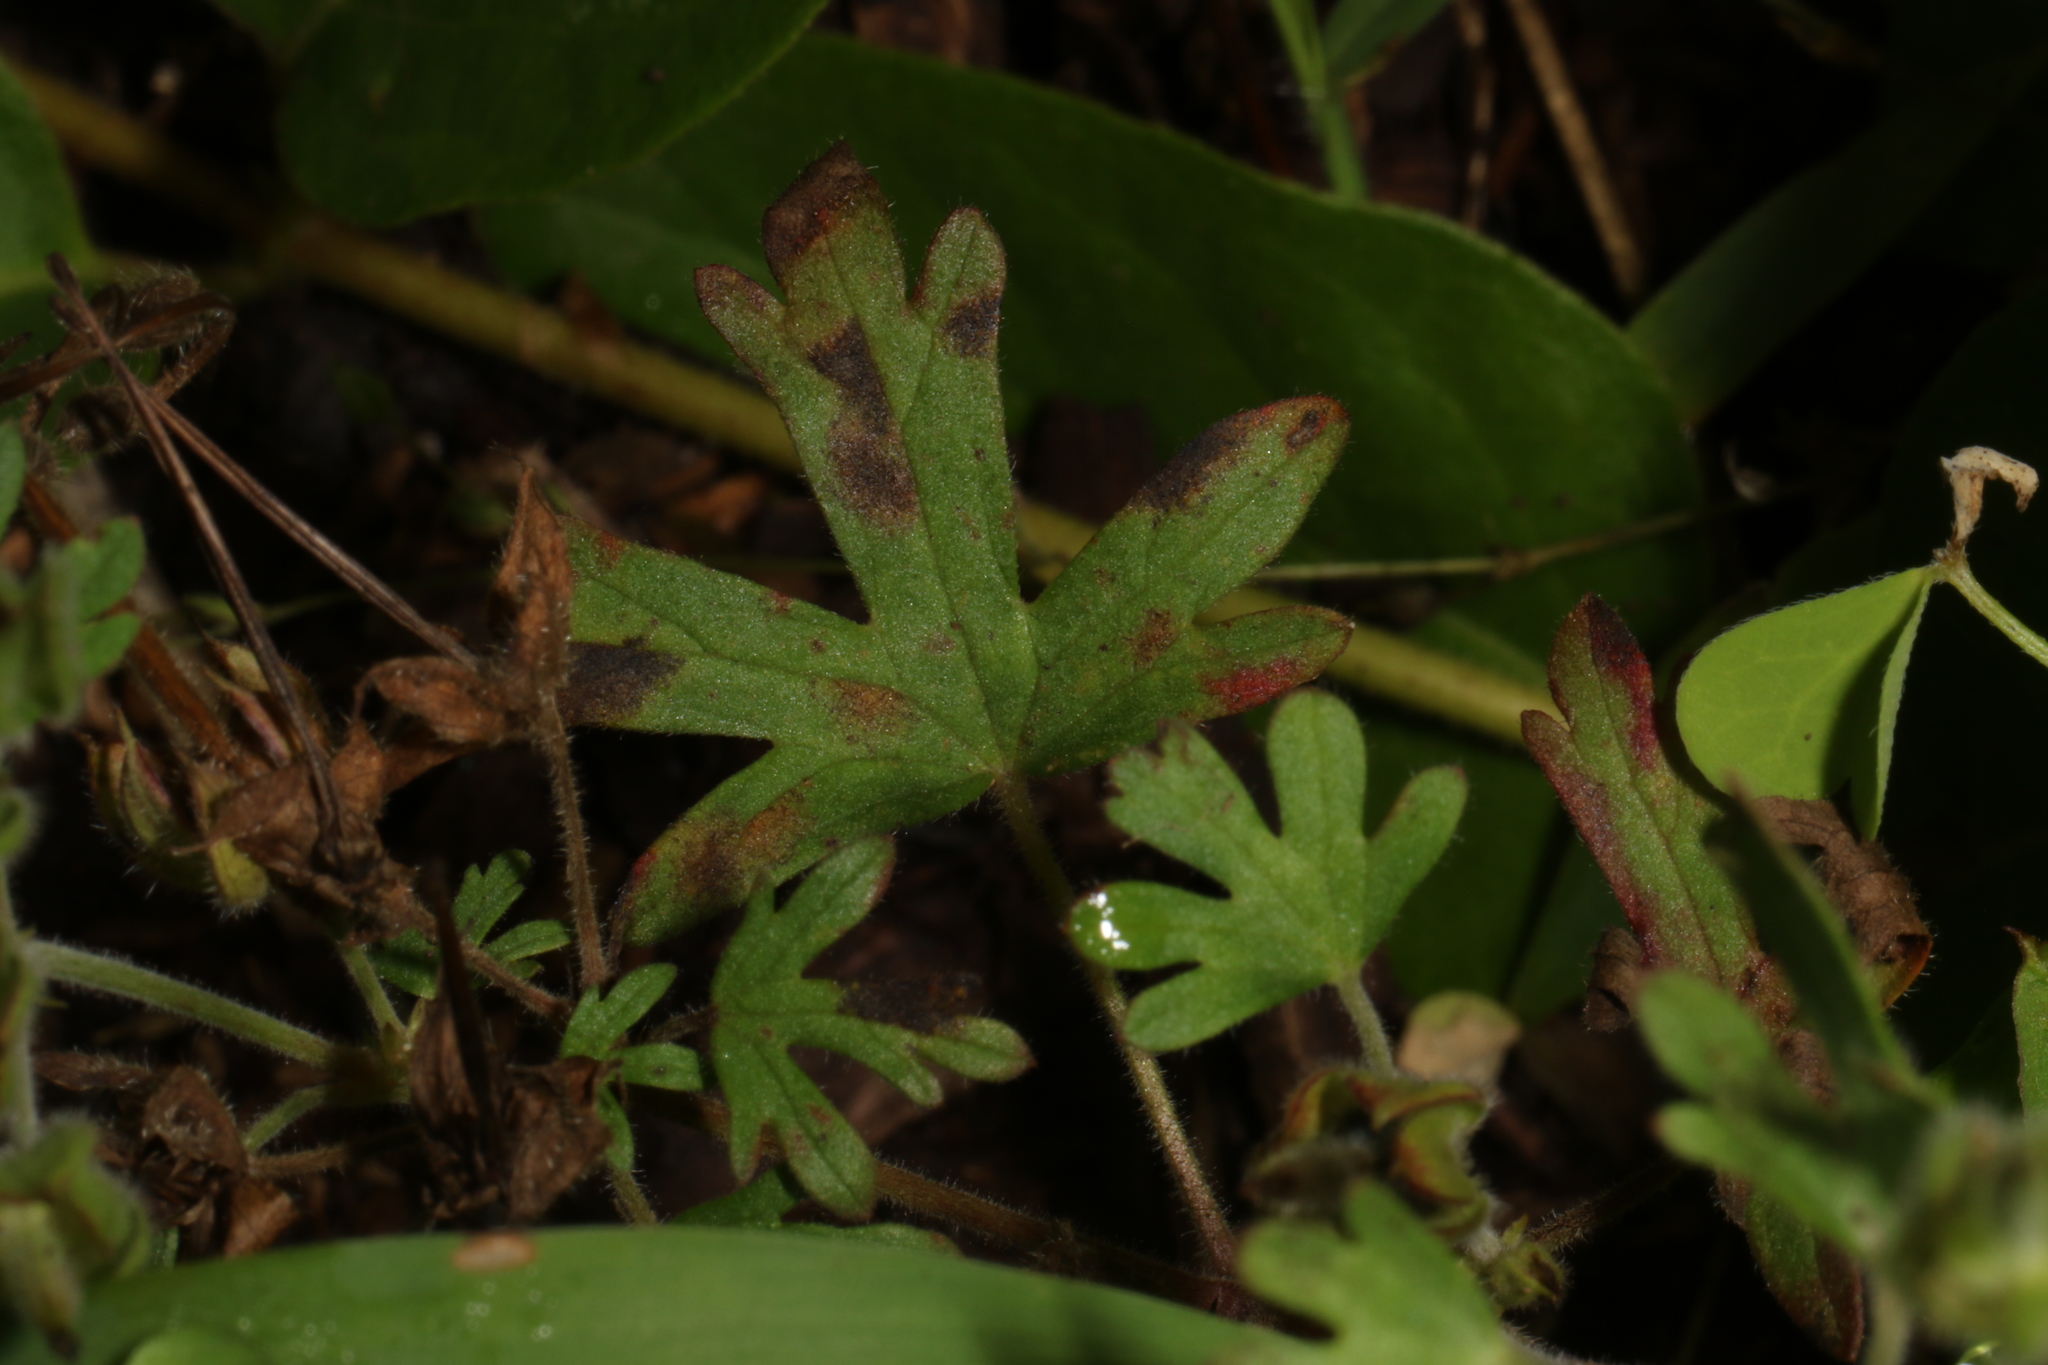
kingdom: Plantae
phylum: Tracheophyta
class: Magnoliopsida
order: Geraniales
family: Geraniaceae
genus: Geranium
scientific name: Geranium carolinianum
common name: Carolina crane's-bill
